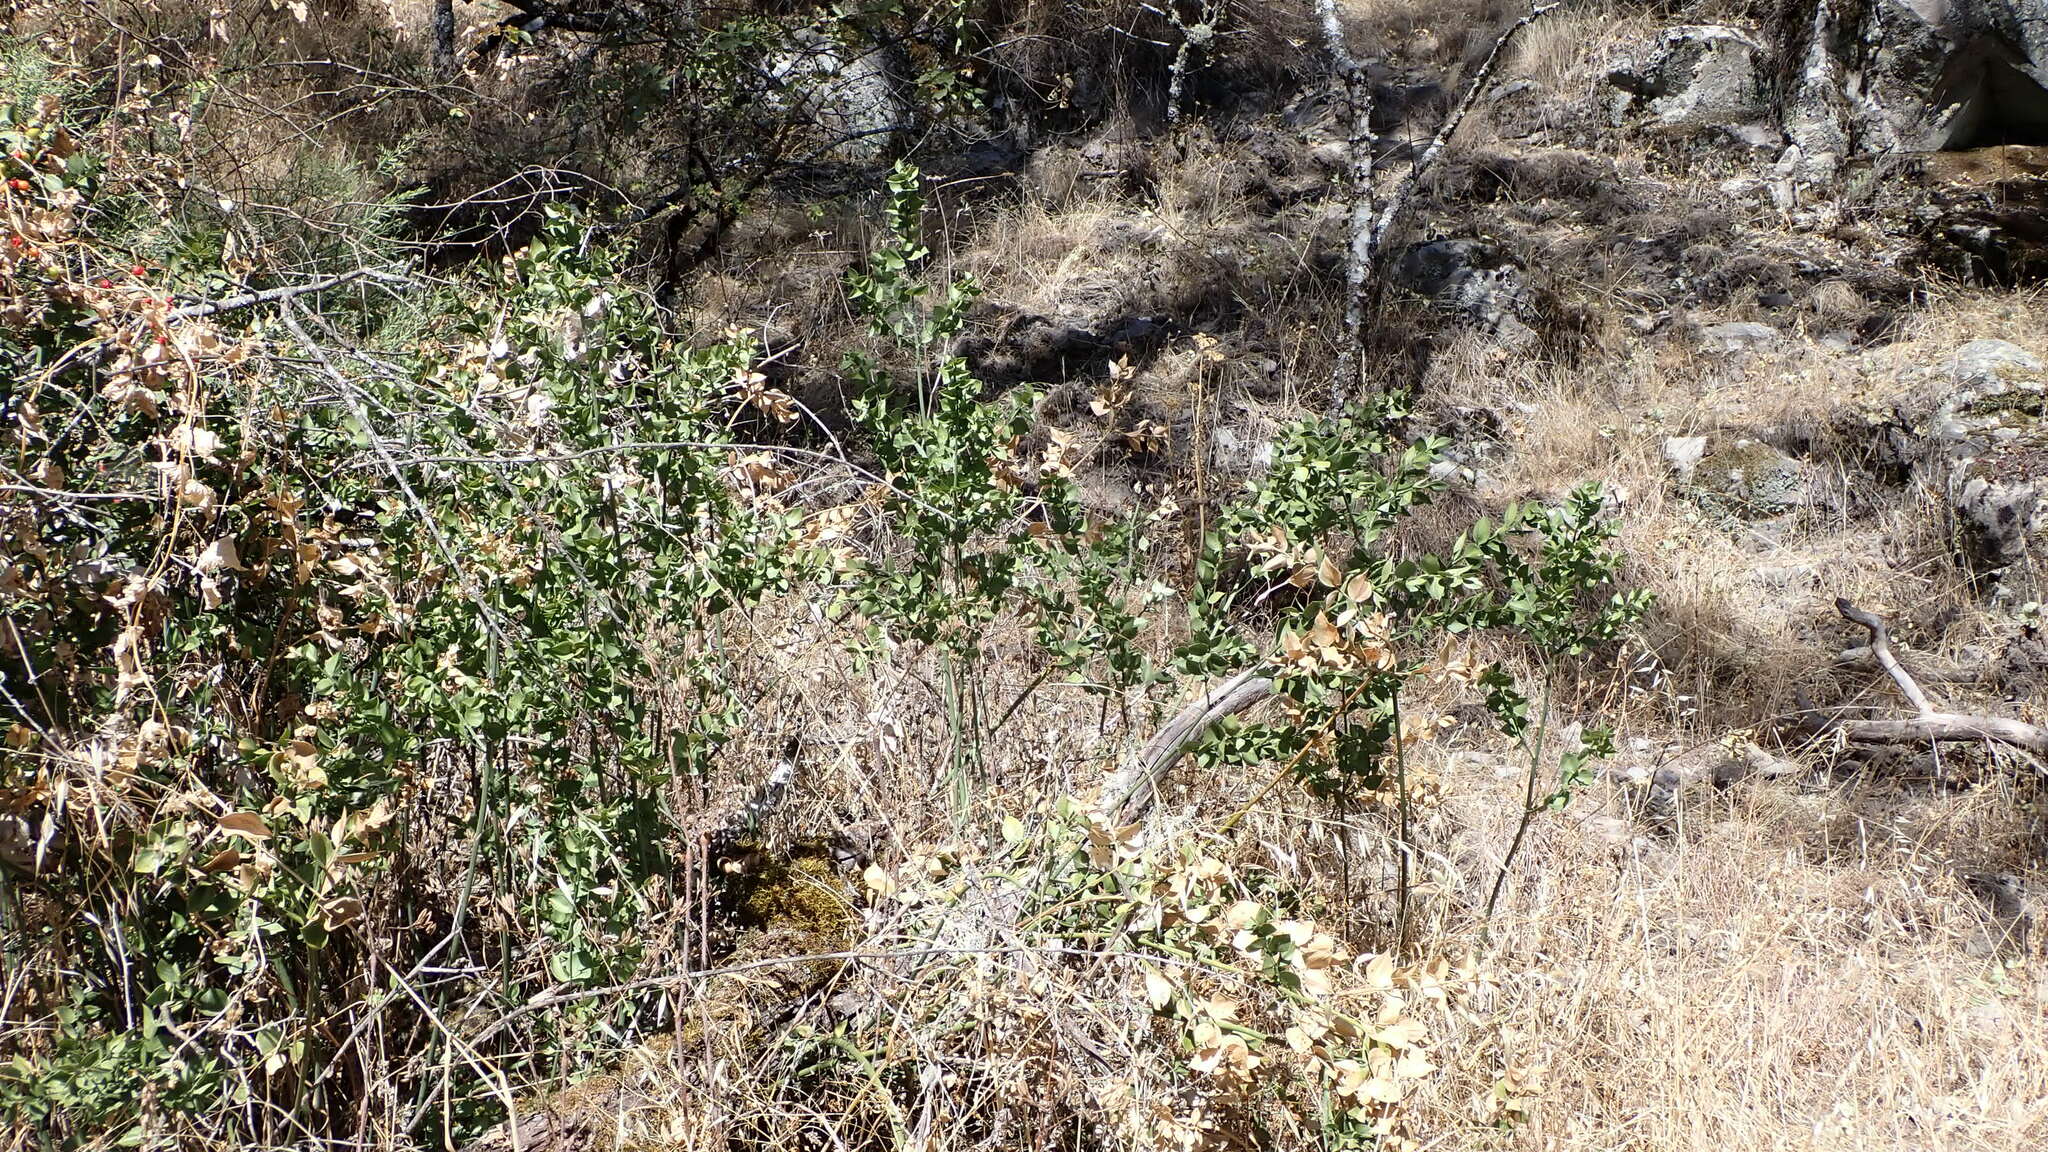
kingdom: Plantae
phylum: Tracheophyta
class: Liliopsida
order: Asparagales
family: Asparagaceae
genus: Ruscus
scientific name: Ruscus aculeatus
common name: Butcher's-broom
